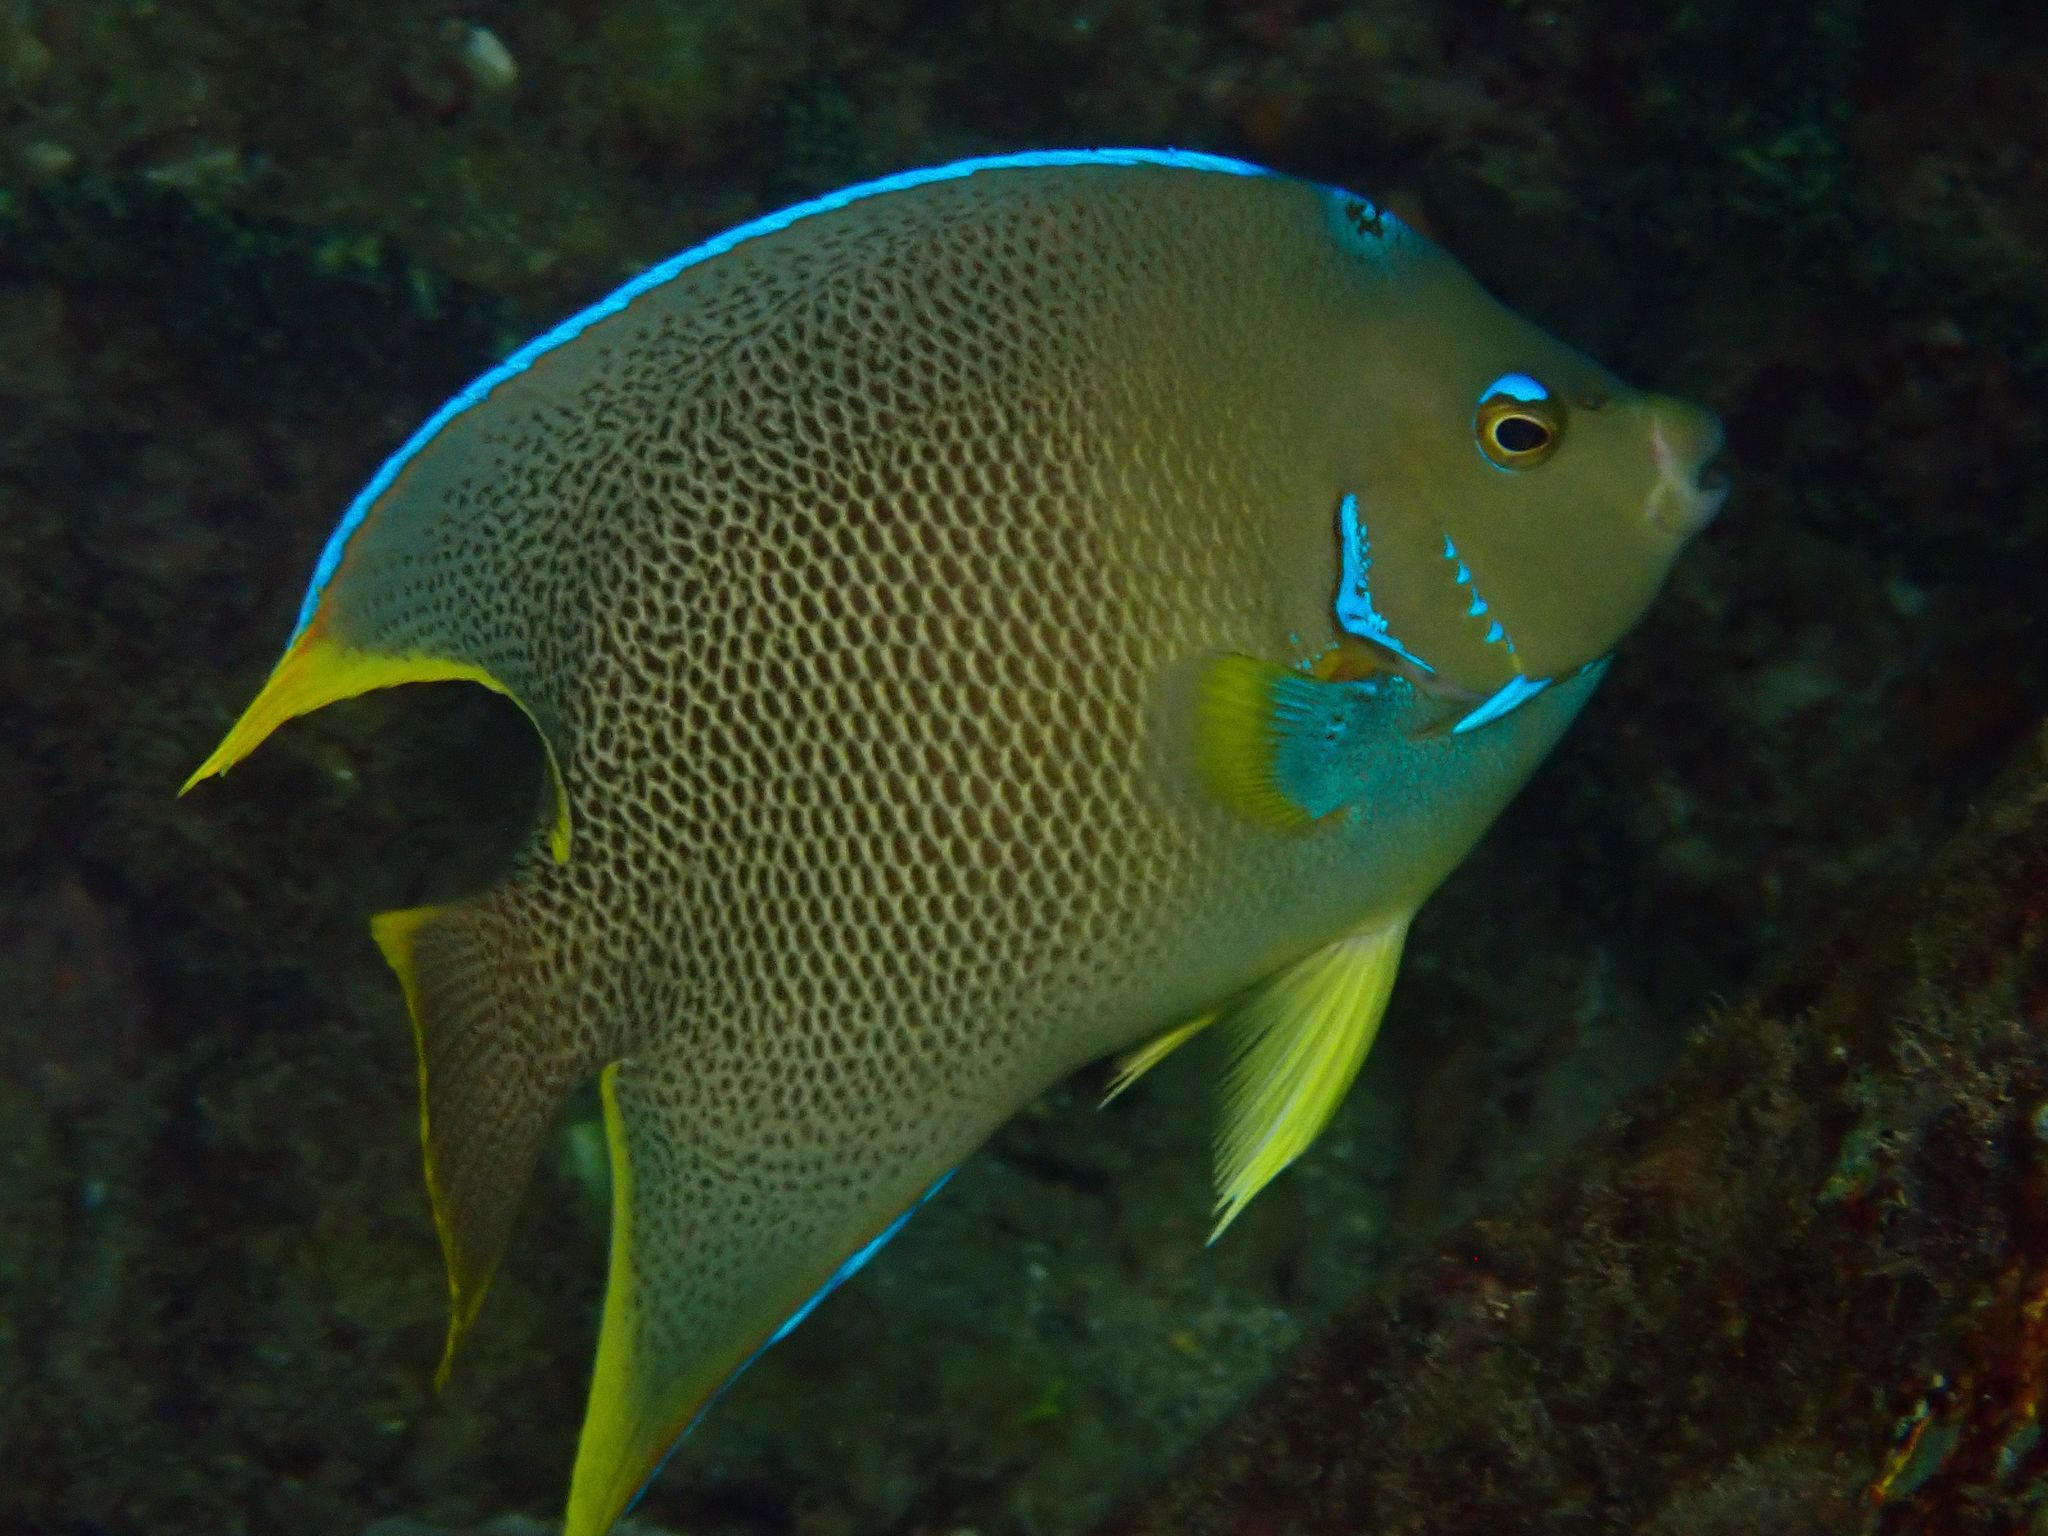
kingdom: Animalia
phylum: Chordata
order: Perciformes
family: Pomacanthidae
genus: Holacanthus
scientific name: Holacanthus ciliaris
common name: Queen angelfish
